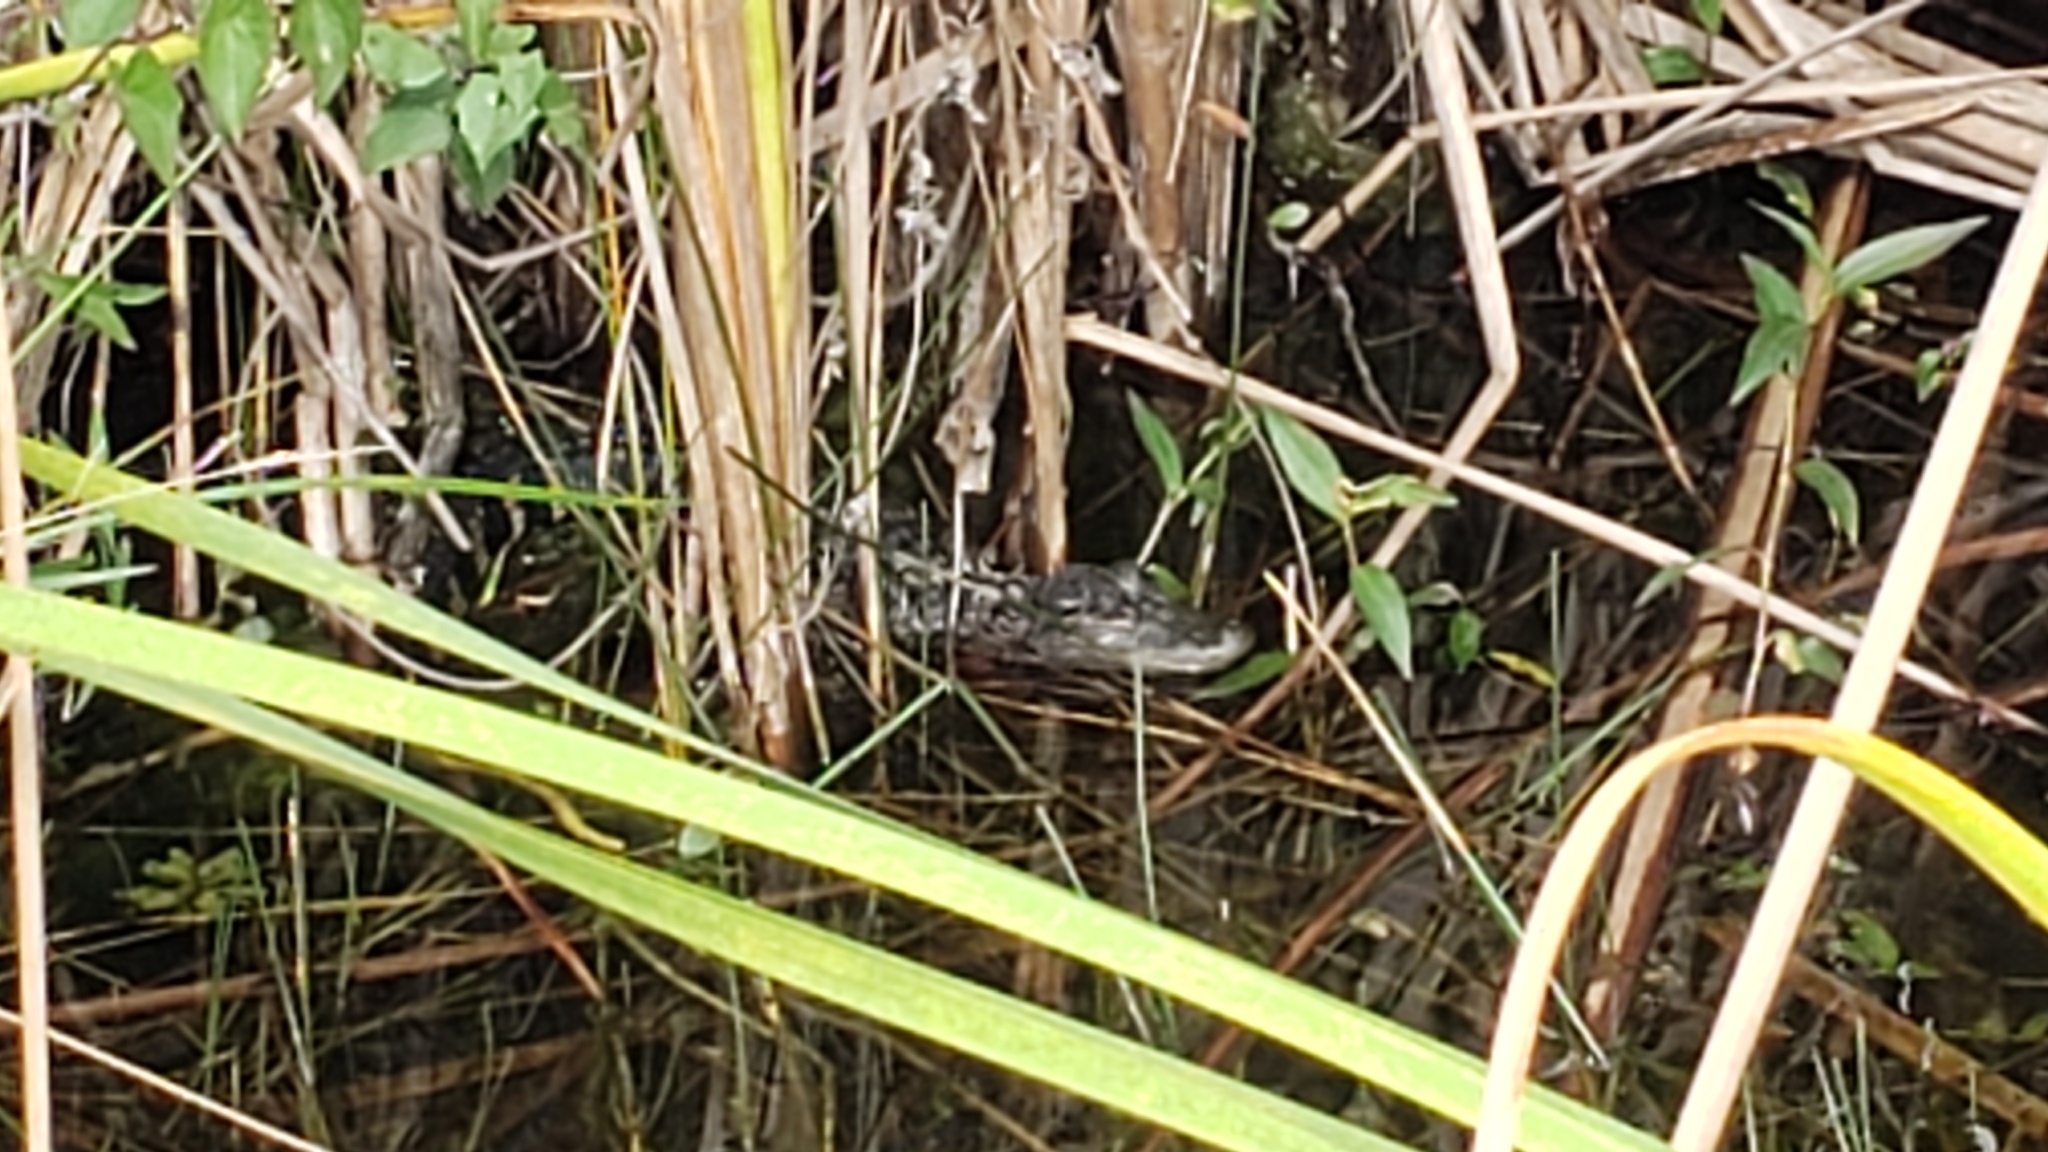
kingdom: Animalia
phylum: Chordata
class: Crocodylia
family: Alligatoridae
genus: Alligator
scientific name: Alligator mississippiensis
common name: American alligator
